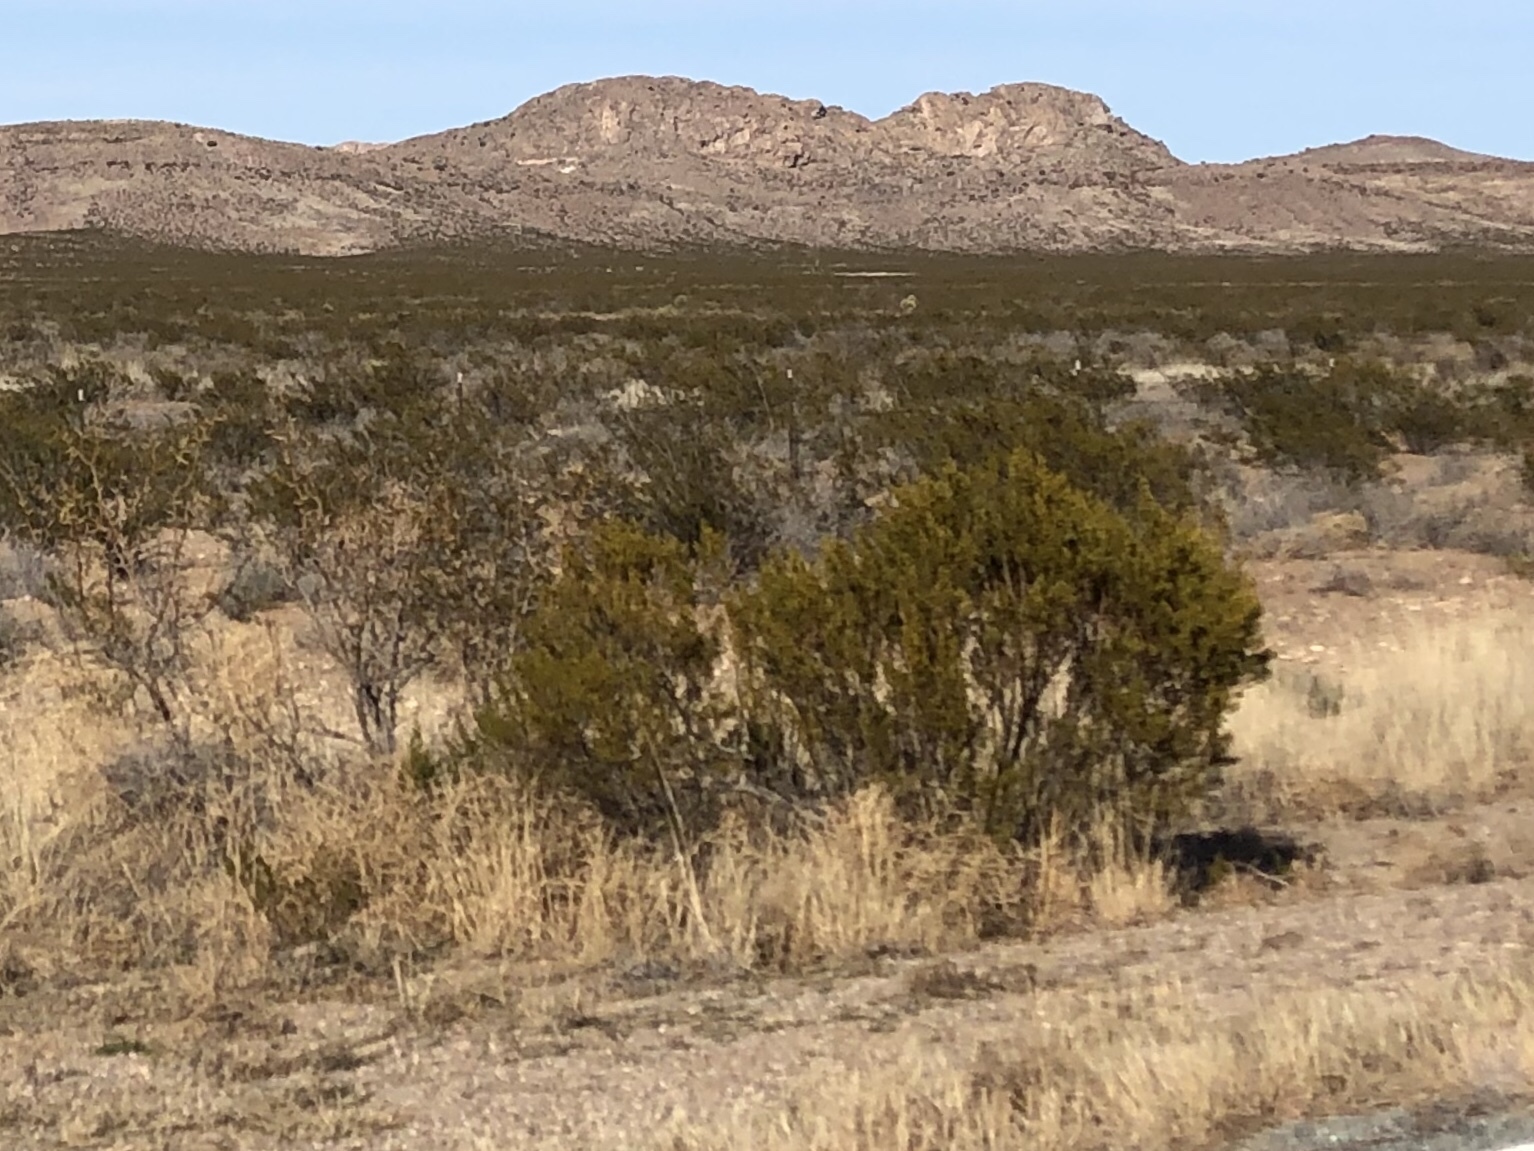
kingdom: Plantae
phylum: Tracheophyta
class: Magnoliopsida
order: Zygophyllales
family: Zygophyllaceae
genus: Larrea
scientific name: Larrea tridentata
